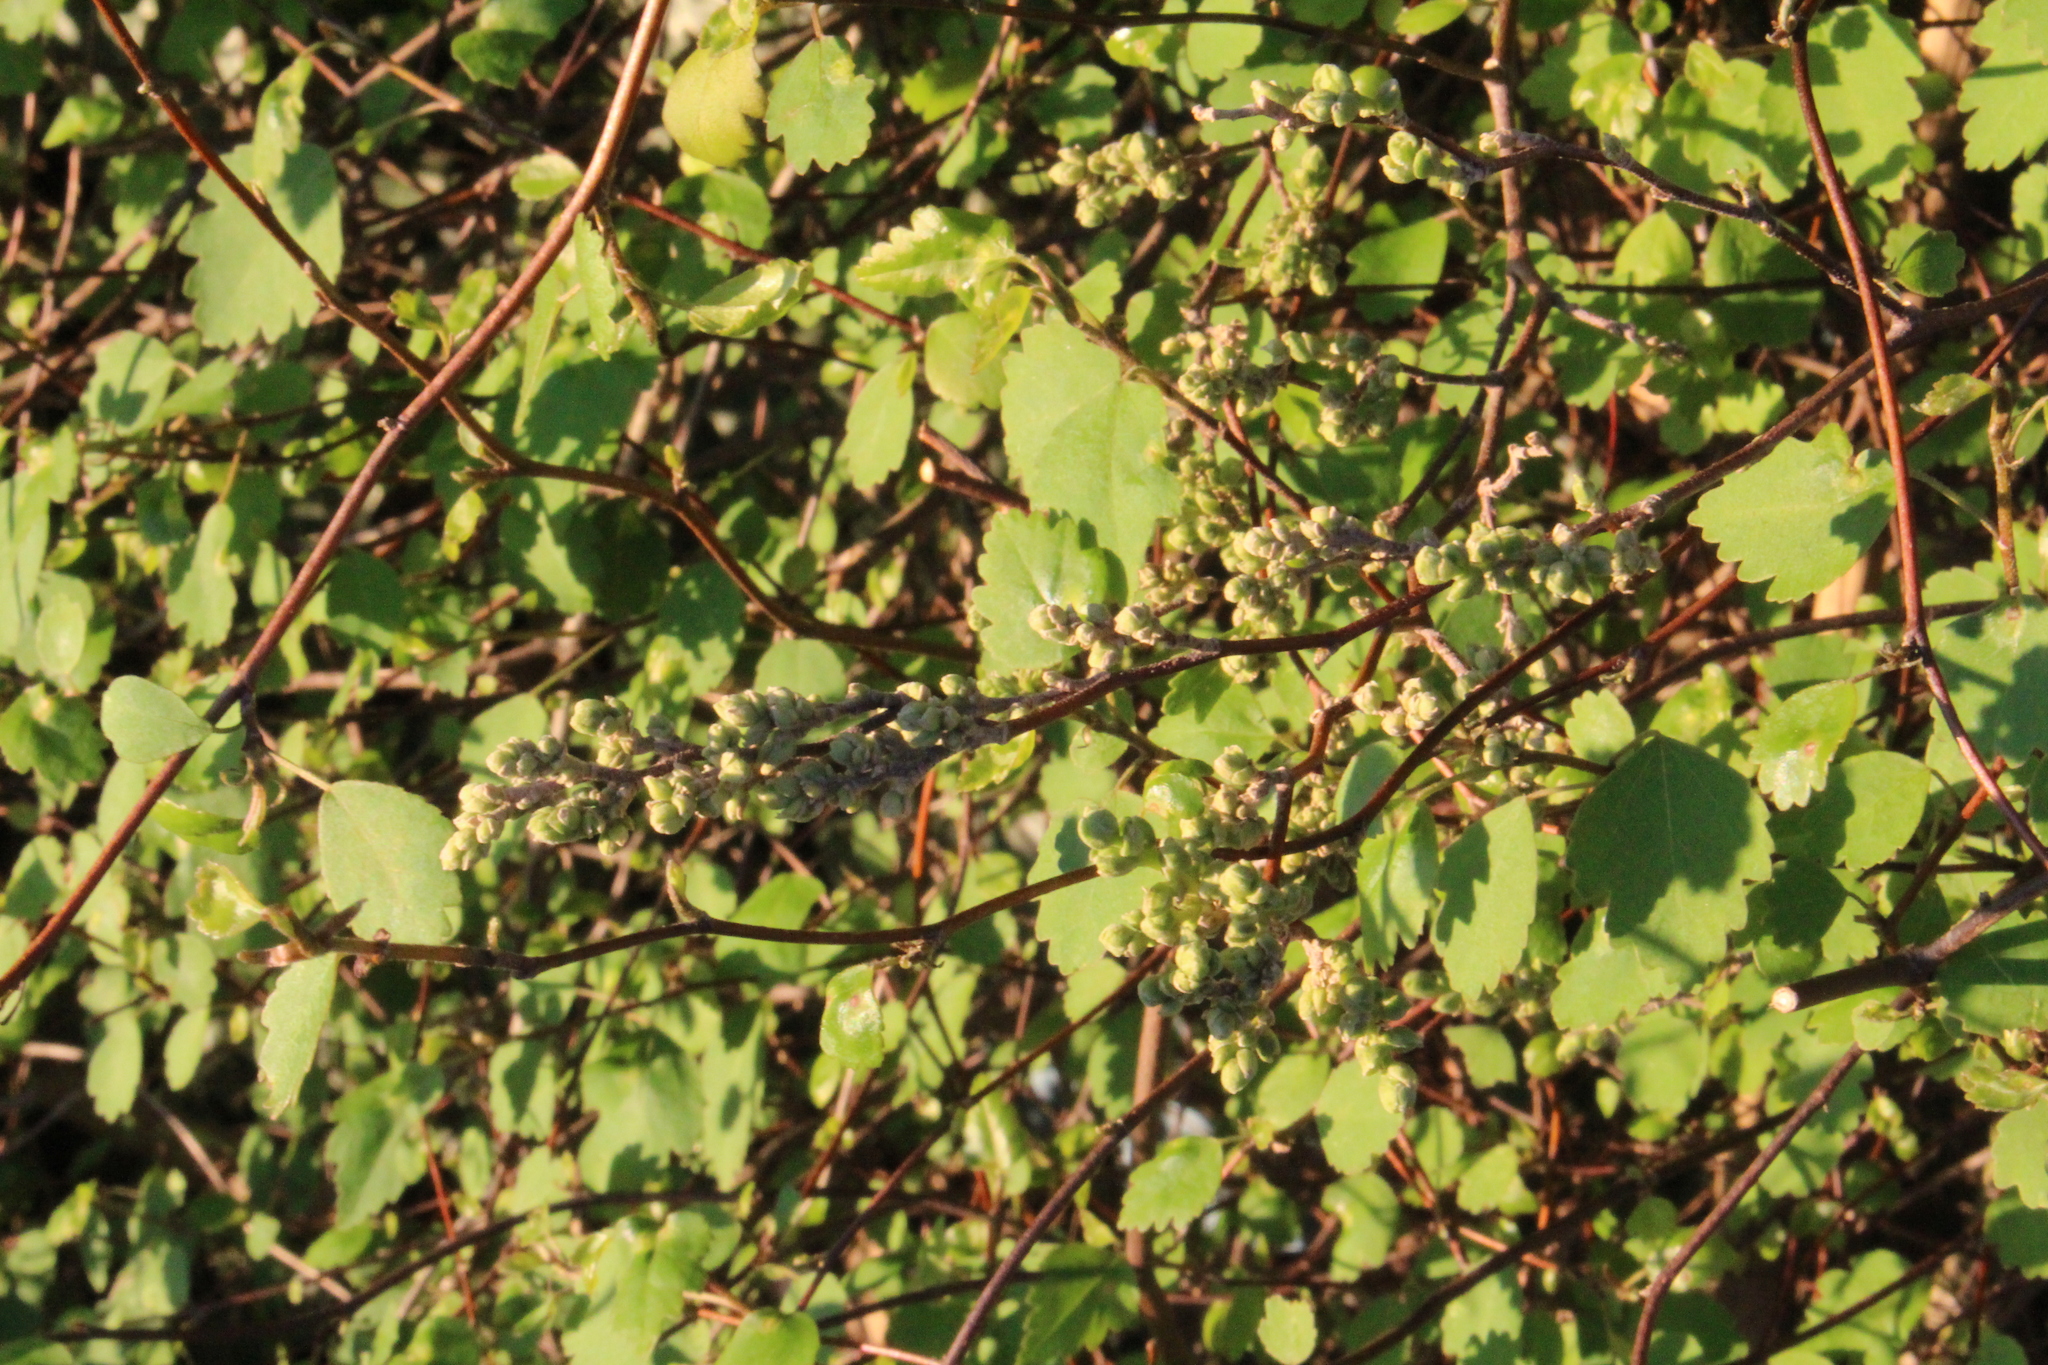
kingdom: Plantae
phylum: Tracheophyta
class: Magnoliopsida
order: Malvales
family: Malvaceae
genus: Plagianthus
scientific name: Plagianthus regius
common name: Manatu
